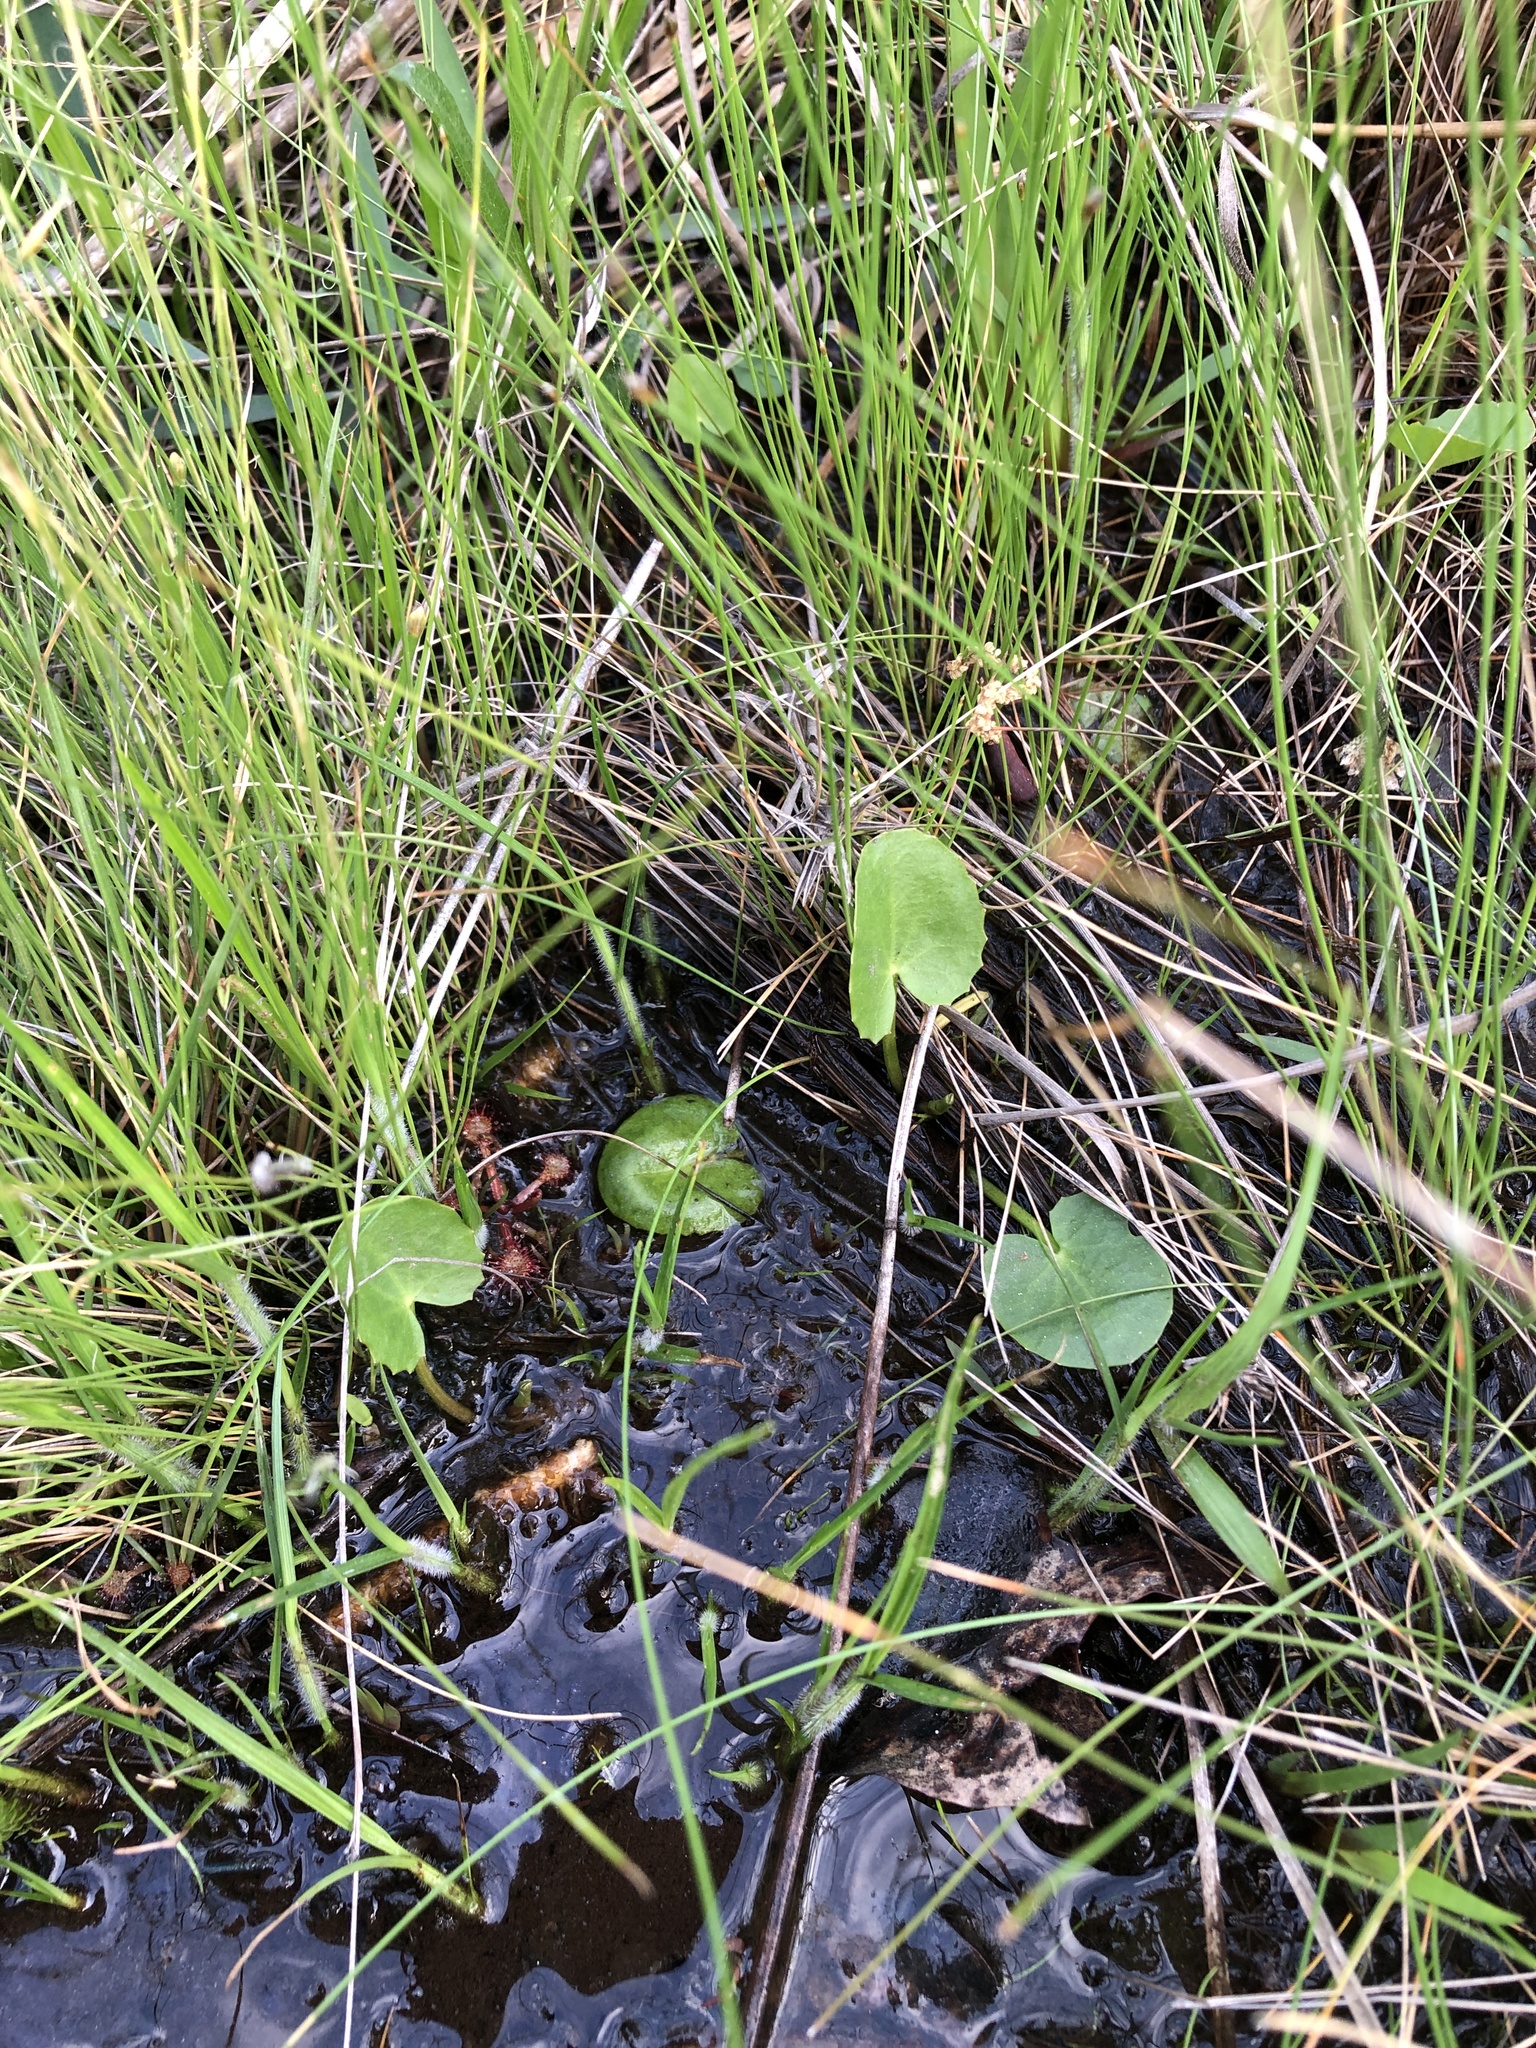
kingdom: Plantae
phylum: Tracheophyta
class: Magnoliopsida
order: Apiales
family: Apiaceae
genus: Centella
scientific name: Centella erecta
